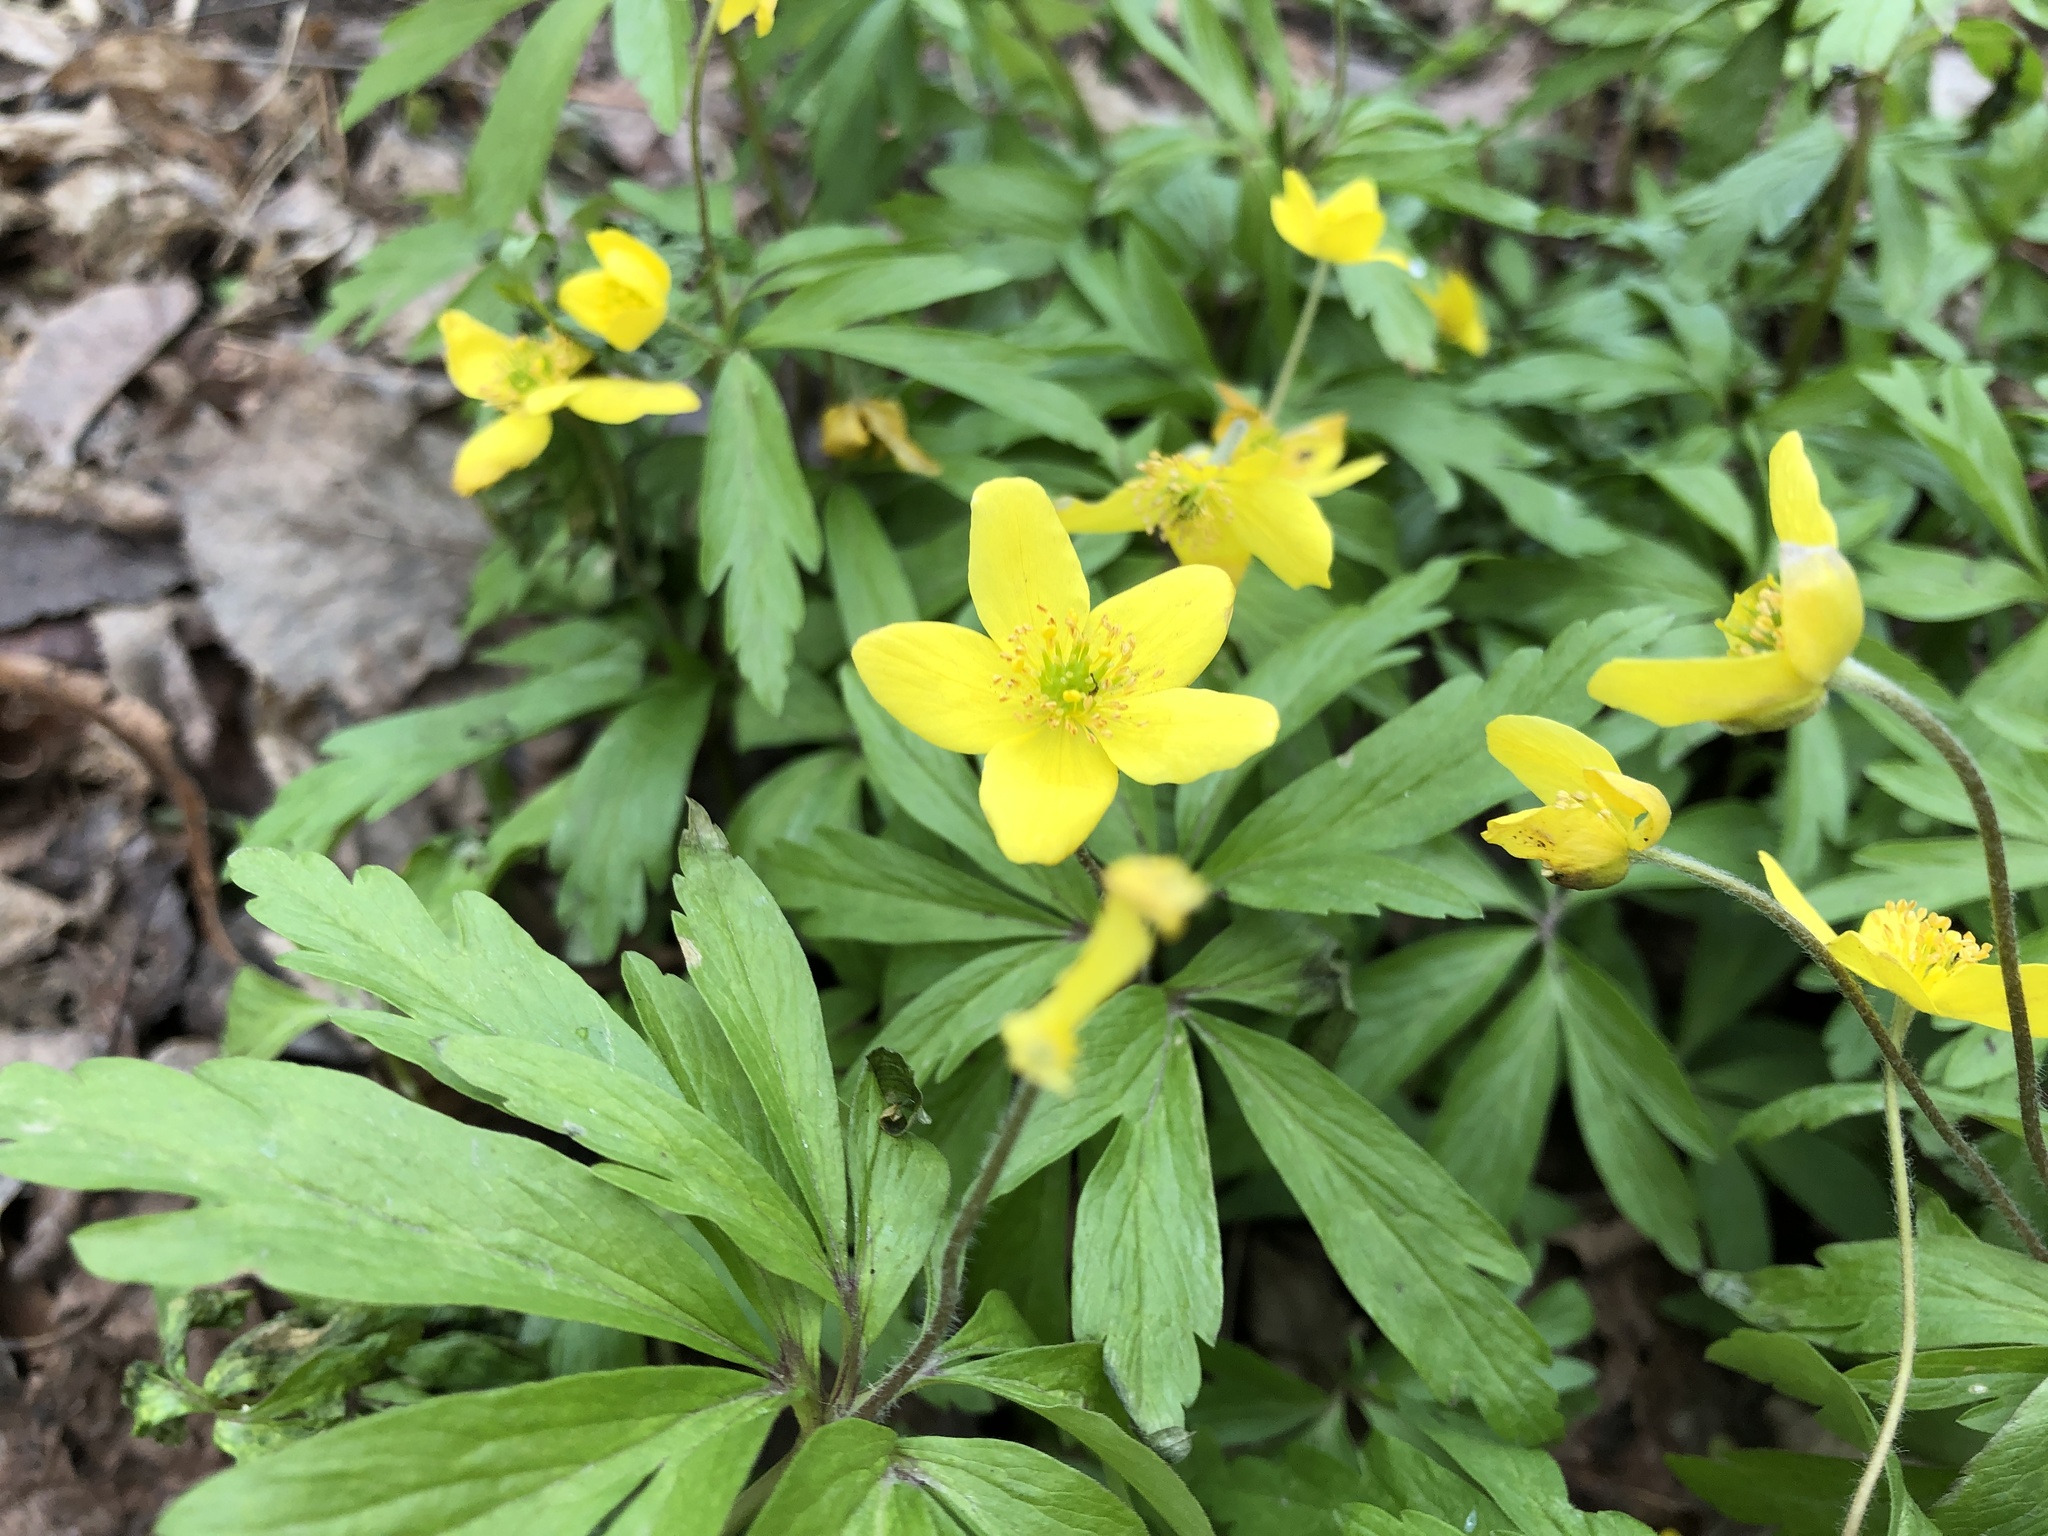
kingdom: Plantae
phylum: Tracheophyta
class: Magnoliopsida
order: Ranunculales
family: Ranunculaceae
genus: Anemone
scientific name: Anemone ranunculoides
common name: Yellow anemone
